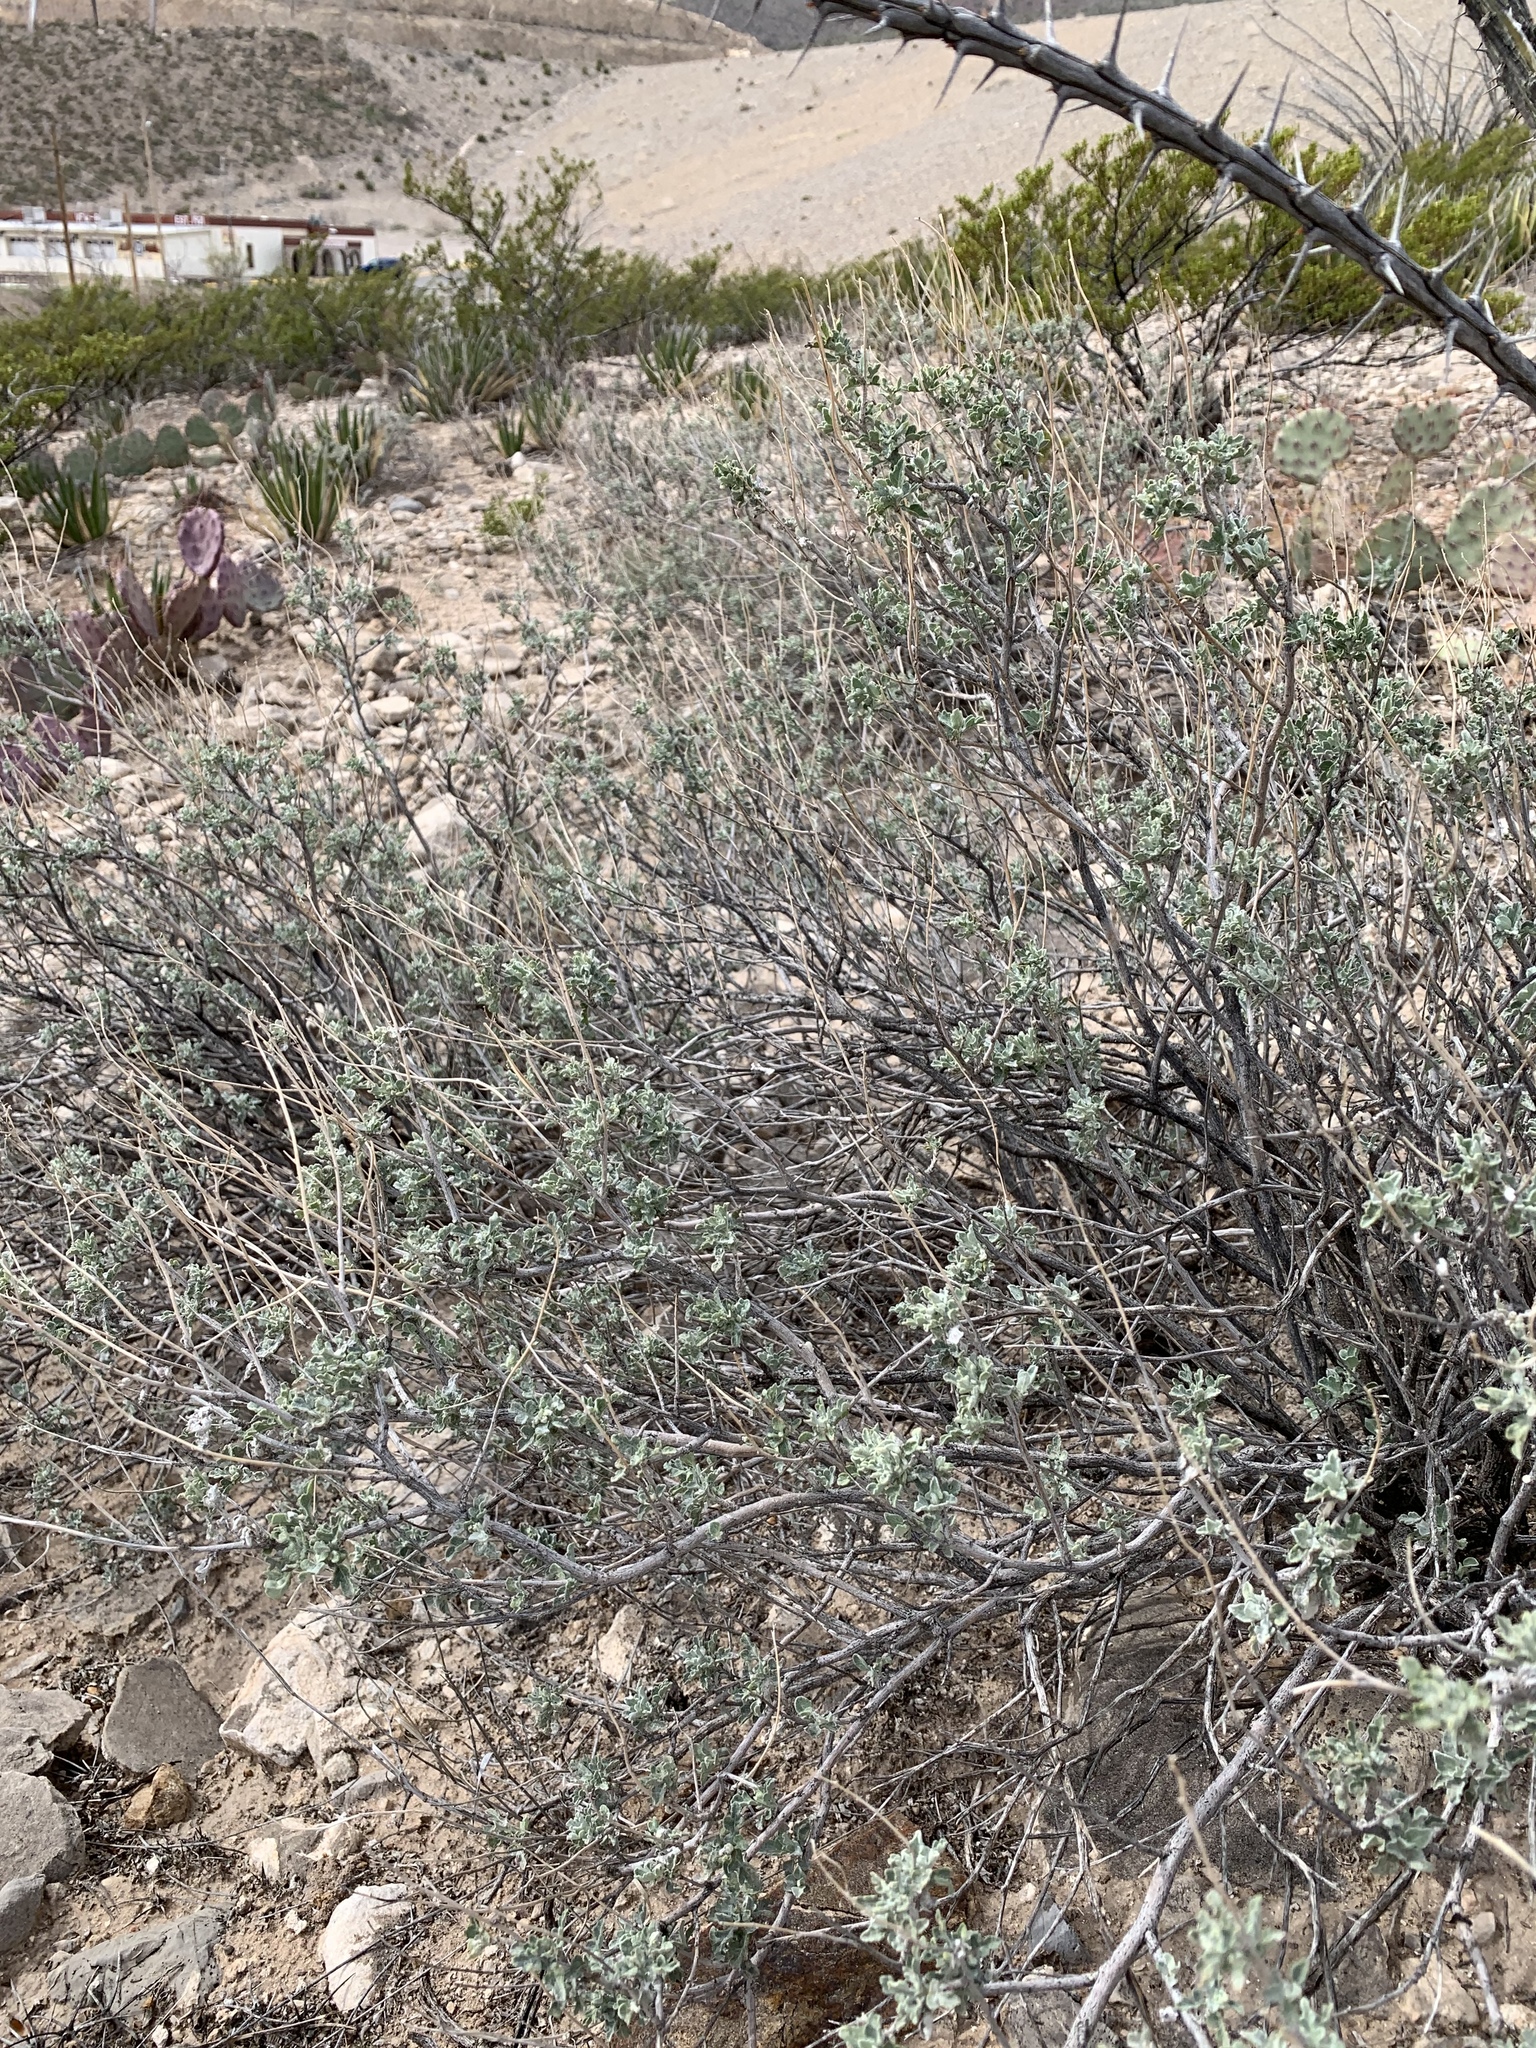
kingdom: Plantae
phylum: Tracheophyta
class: Magnoliopsida
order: Asterales
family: Asteraceae
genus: Parthenium
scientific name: Parthenium incanum
